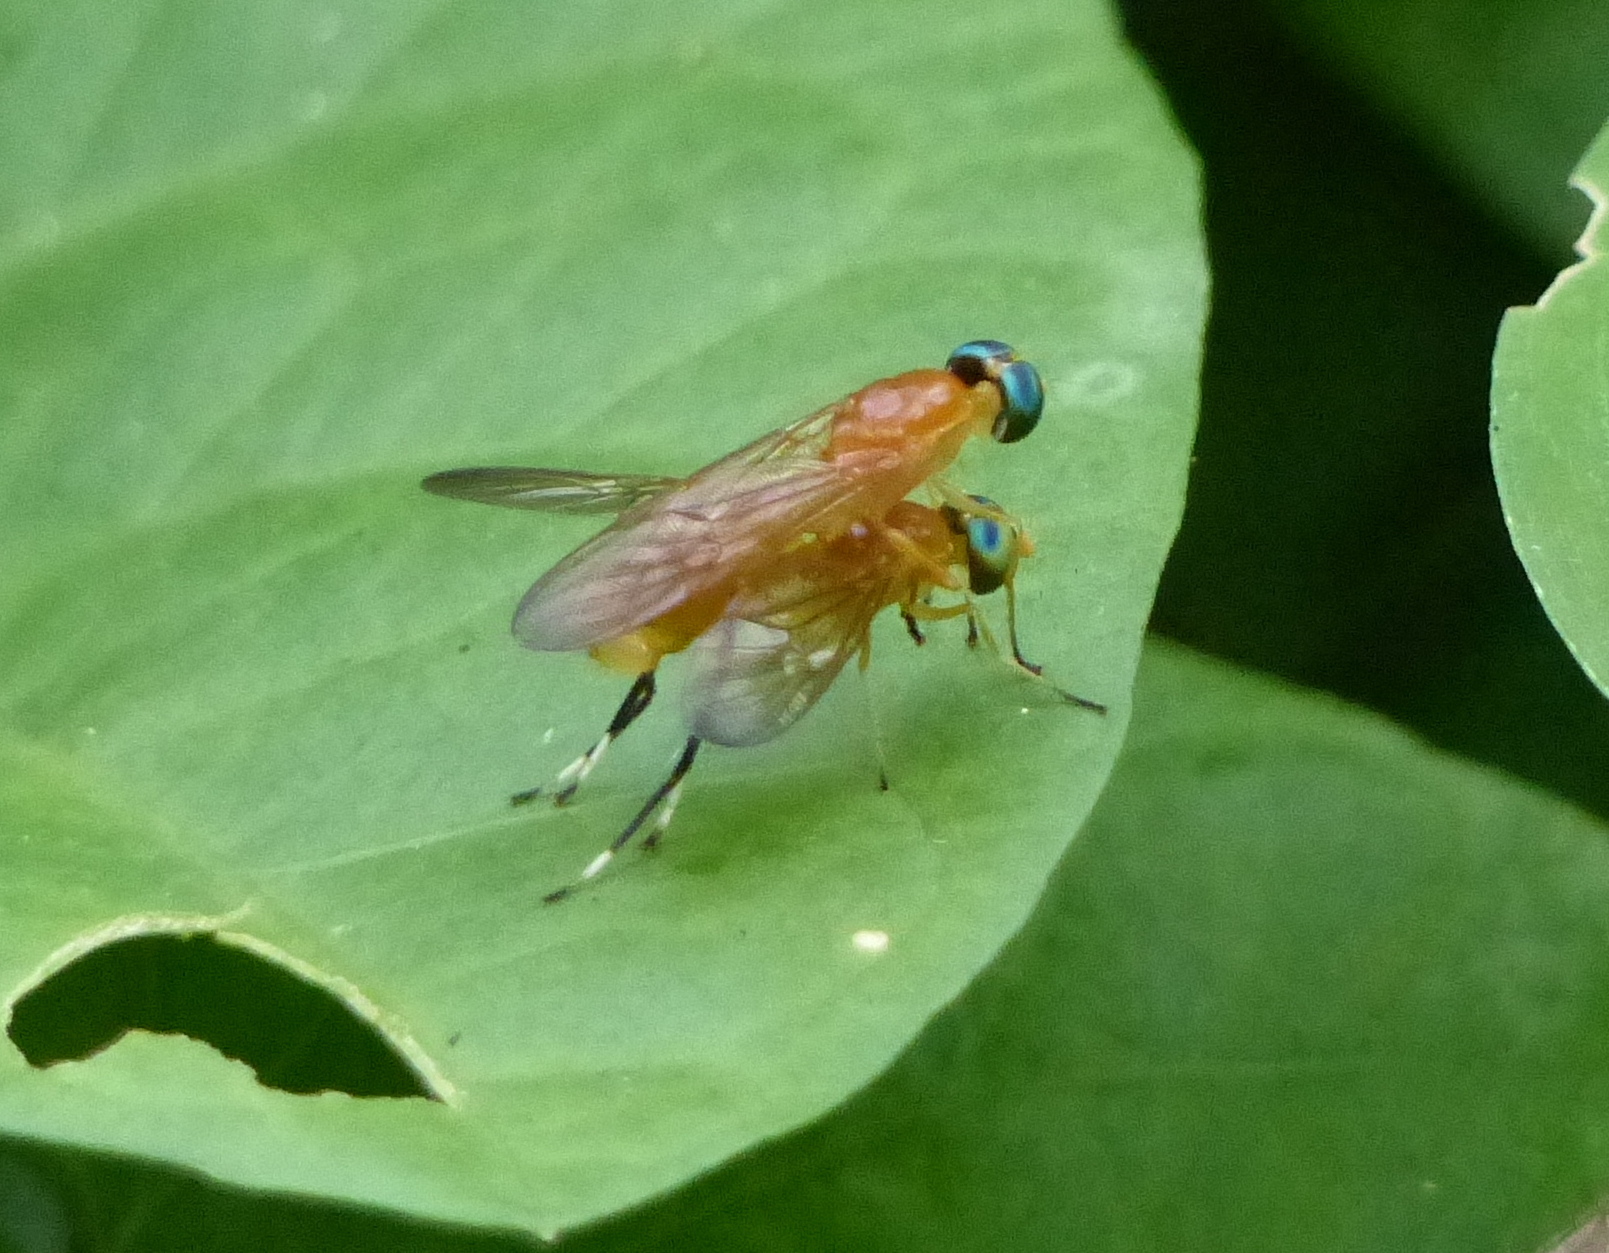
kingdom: Animalia
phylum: Arthropoda
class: Insecta
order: Diptera
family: Stratiomyidae
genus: Ptecticus
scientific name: Ptecticus testaceus
